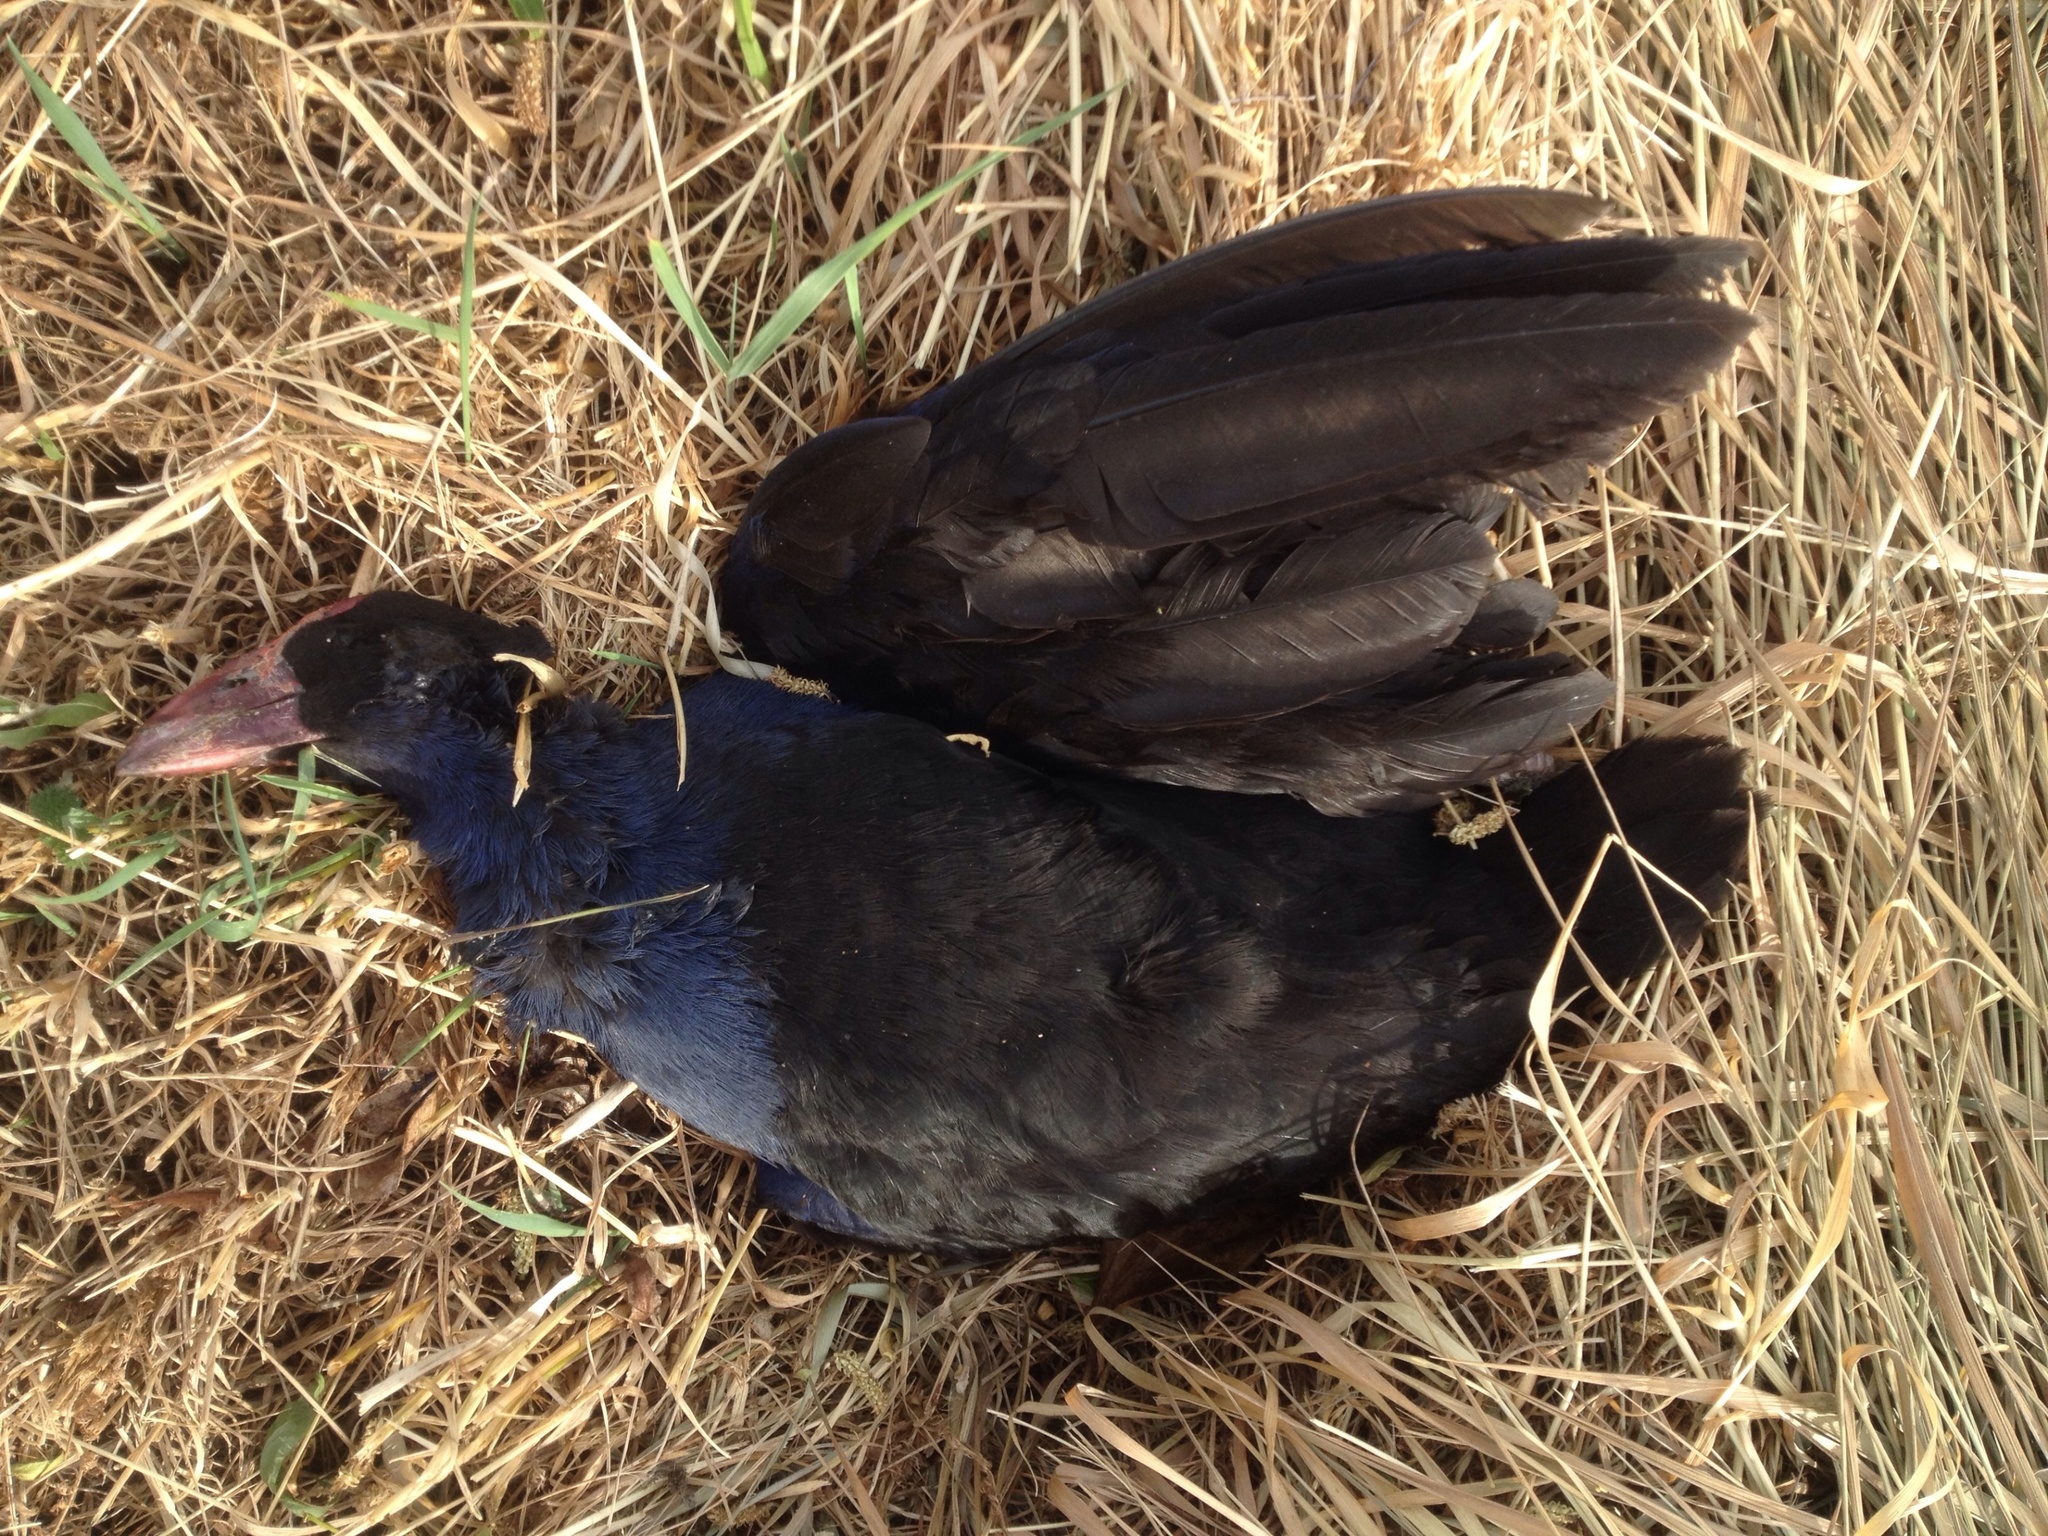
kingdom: Animalia
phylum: Chordata
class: Aves
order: Gruiformes
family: Rallidae
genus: Porphyrio
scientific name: Porphyrio melanotus
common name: Australasian swamphen
